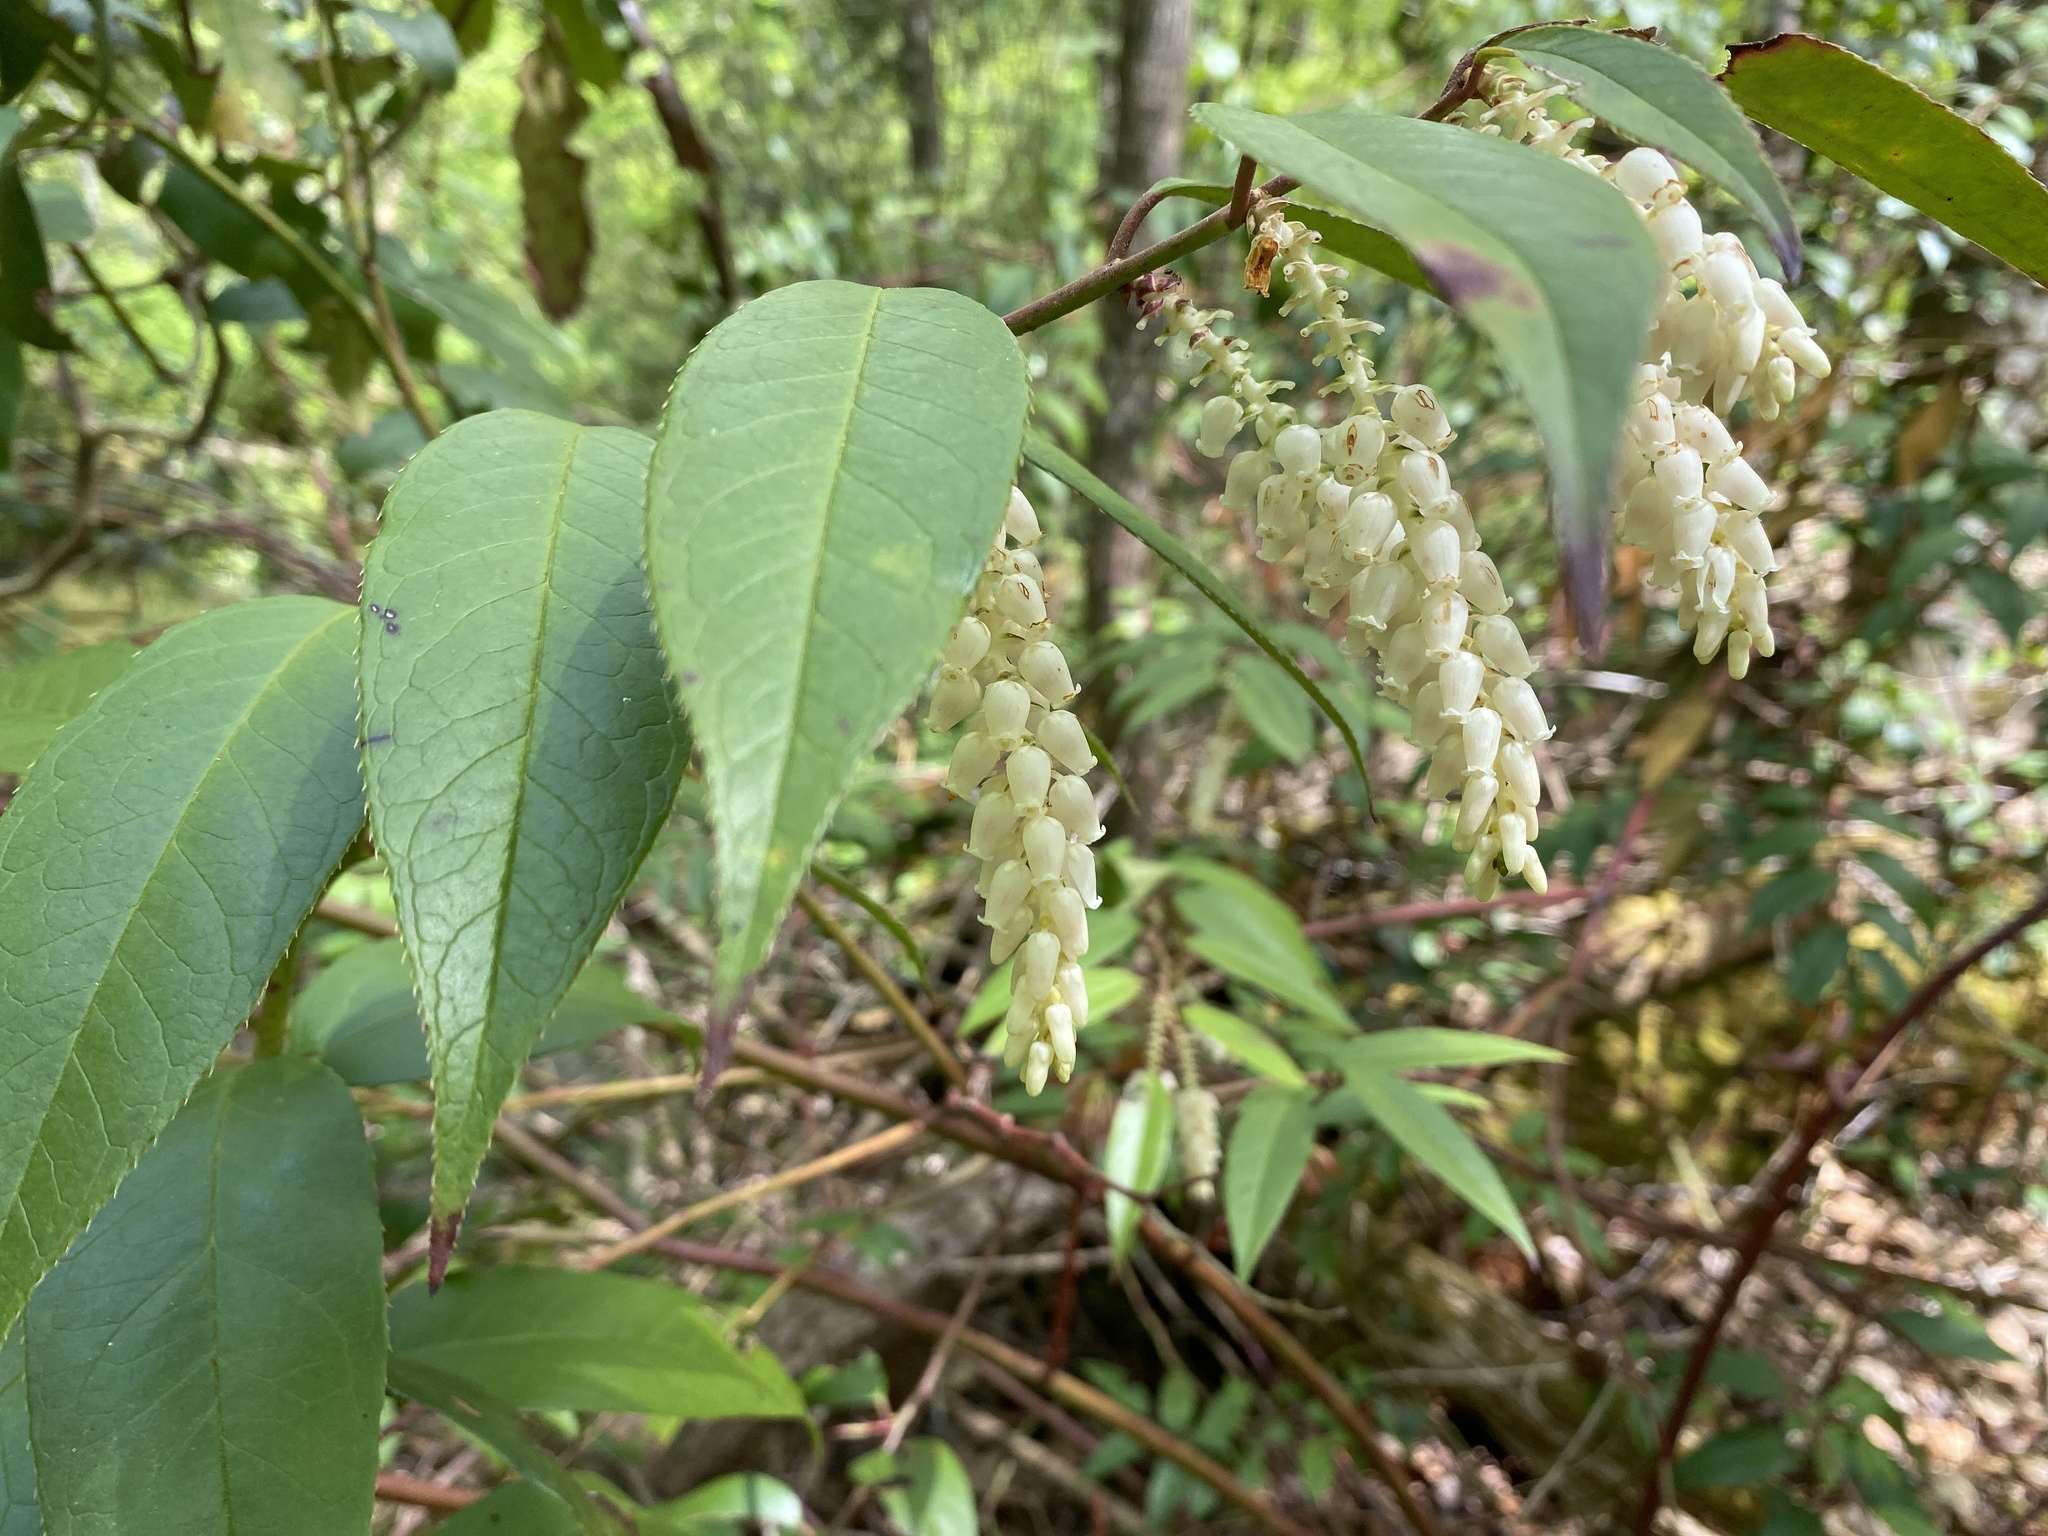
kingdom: Plantae
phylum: Tracheophyta
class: Magnoliopsida
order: Ericales
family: Ericaceae
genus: Leucothoe
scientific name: Leucothoe fontanesiana
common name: Fetterbush
